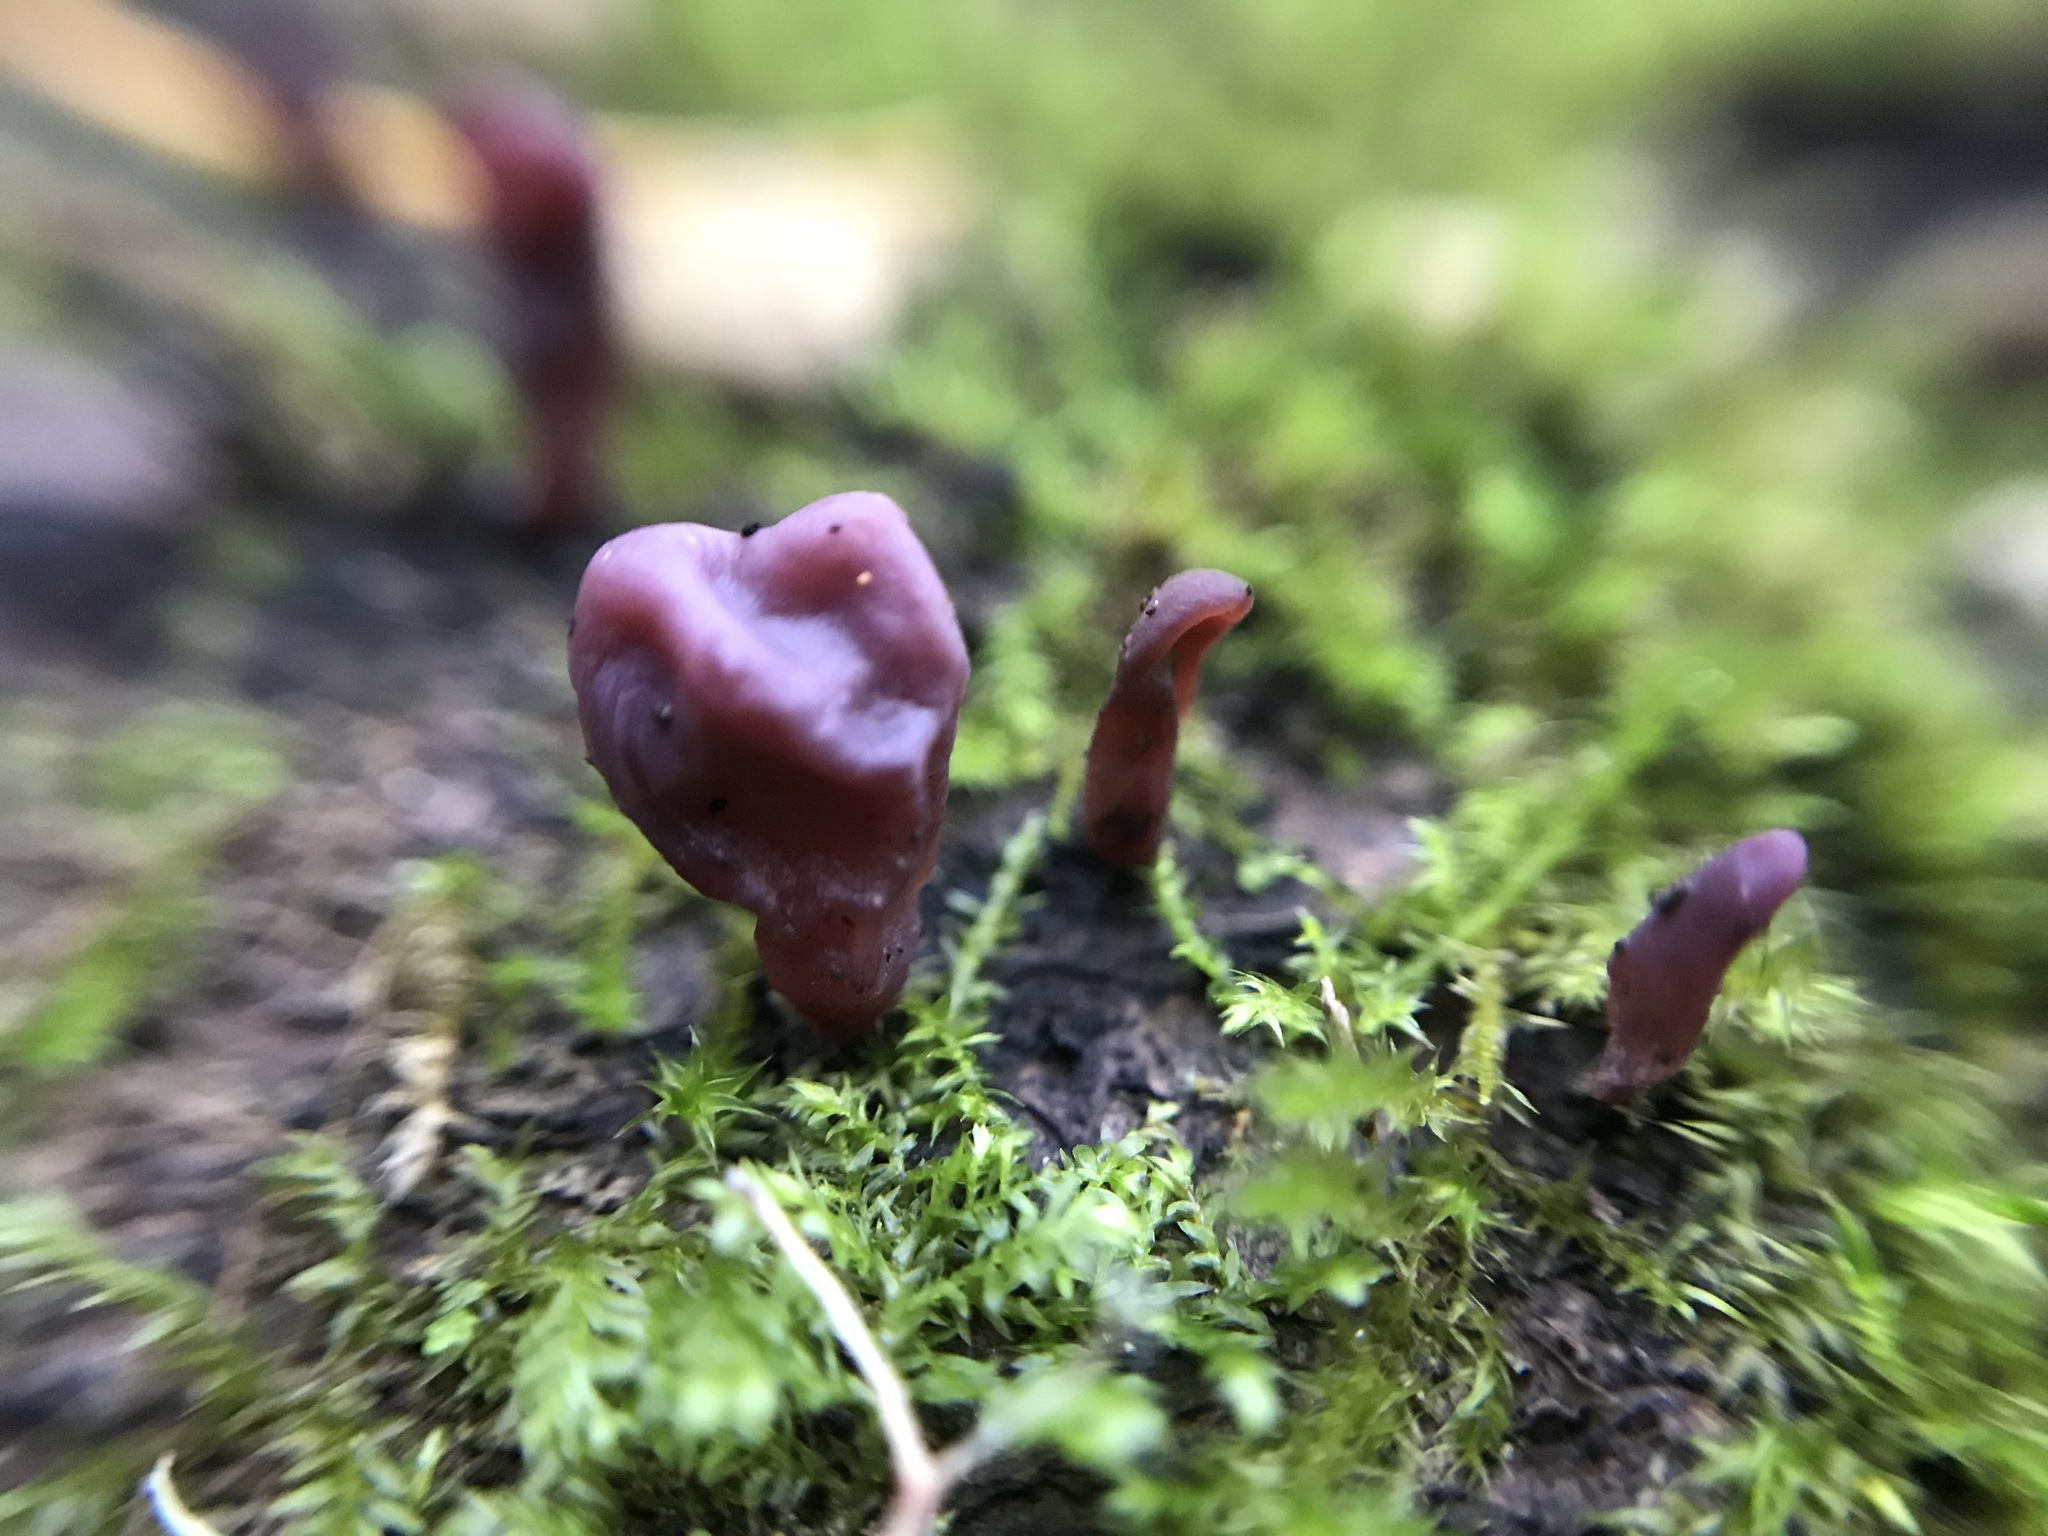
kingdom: Fungi
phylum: Ascomycota
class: Leotiomycetes
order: Helotiales
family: Gelatinodiscaceae
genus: Ascocoryne
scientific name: Ascocoryne sarcoides
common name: Purple jellydisc
